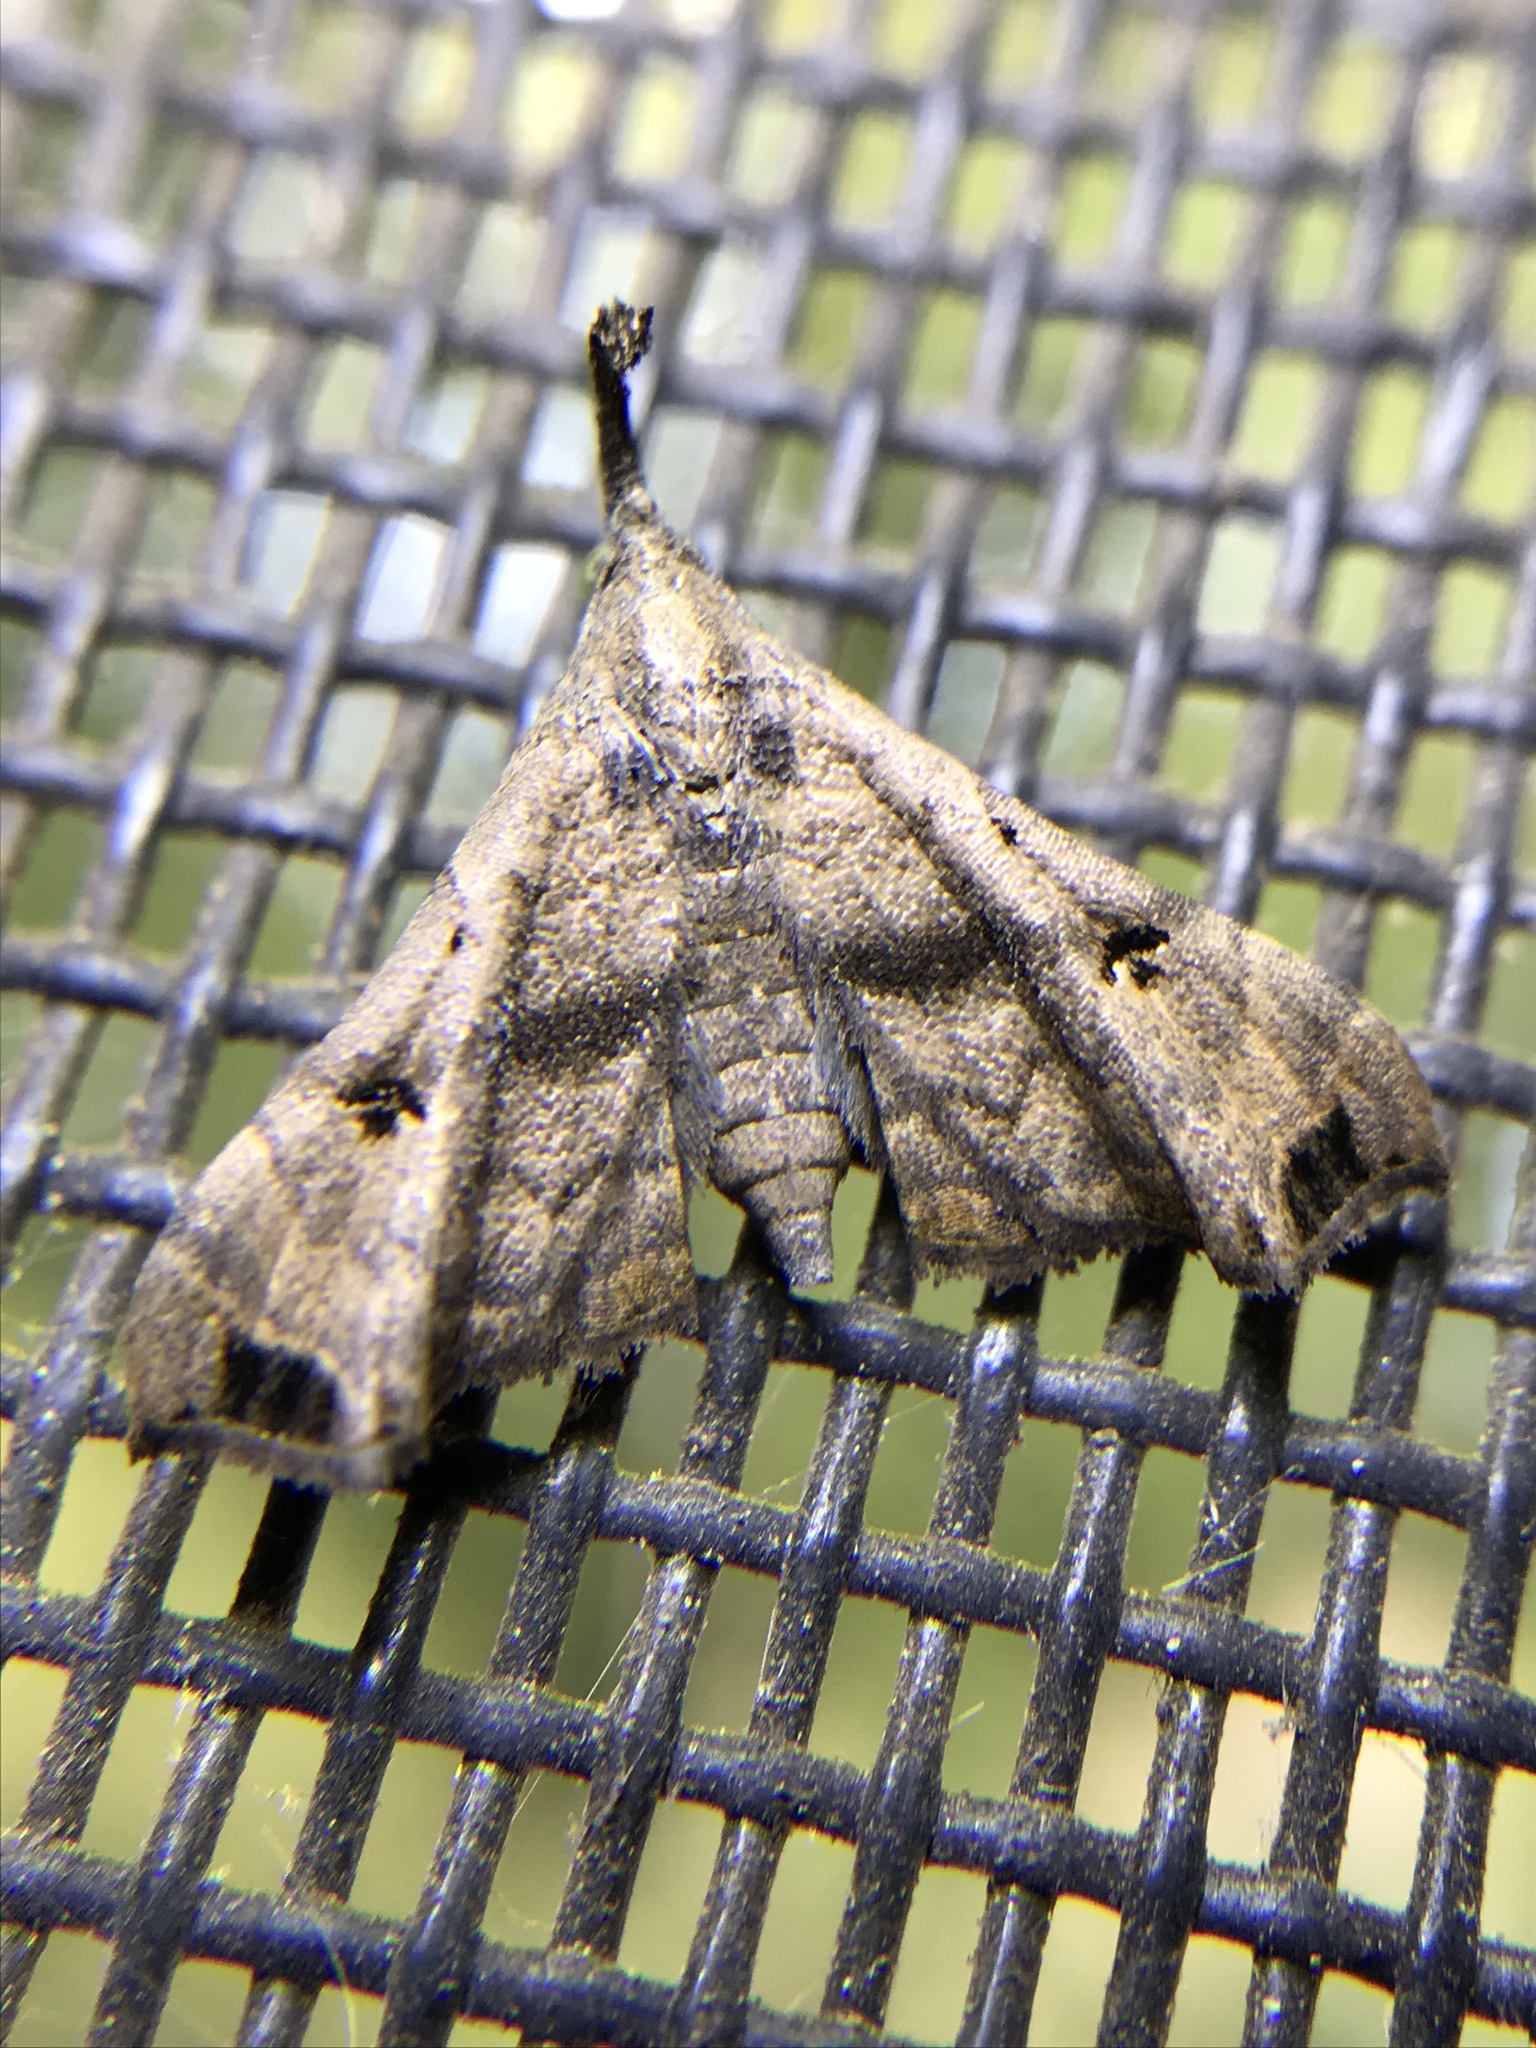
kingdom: Animalia
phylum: Arthropoda
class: Insecta
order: Lepidoptera
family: Erebidae
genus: Palthis
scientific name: Palthis asopialis
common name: Faint-spotted palthis moth
